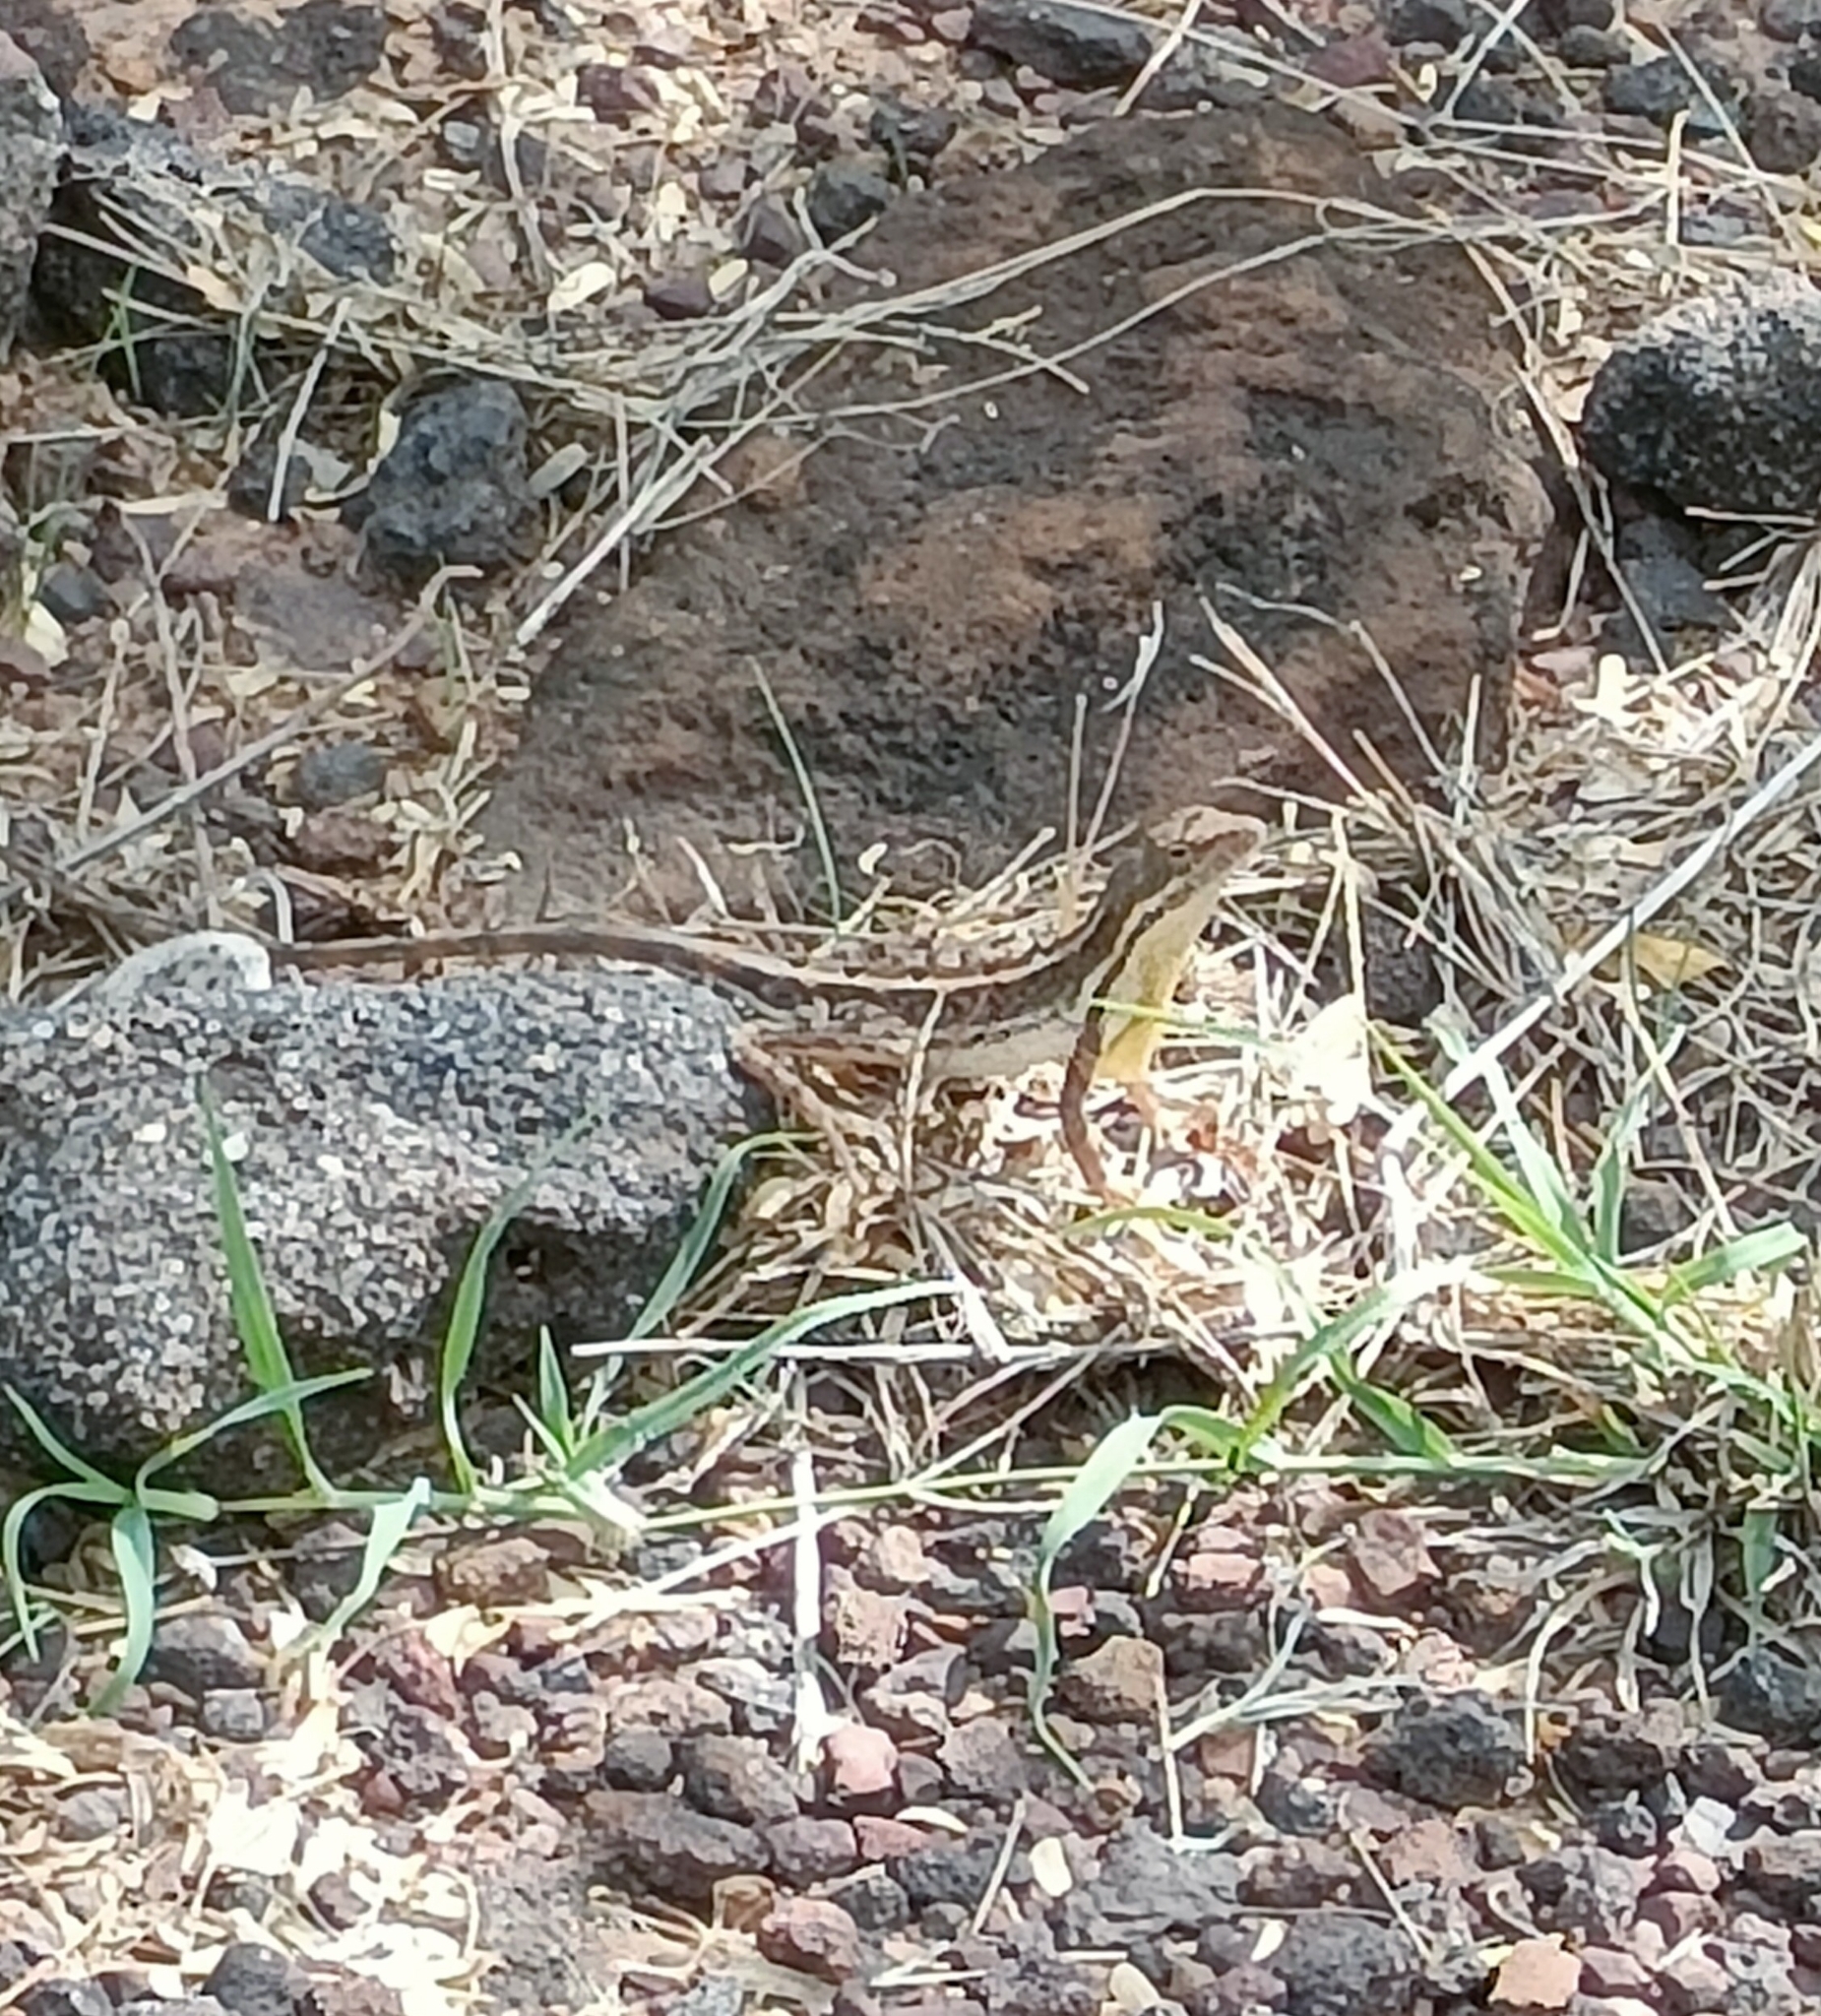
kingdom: Animalia
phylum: Chordata
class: Squamata
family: Agamidae
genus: Sitana
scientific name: Sitana spinaecephalus
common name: Spiny-headed fan-throated lizard
